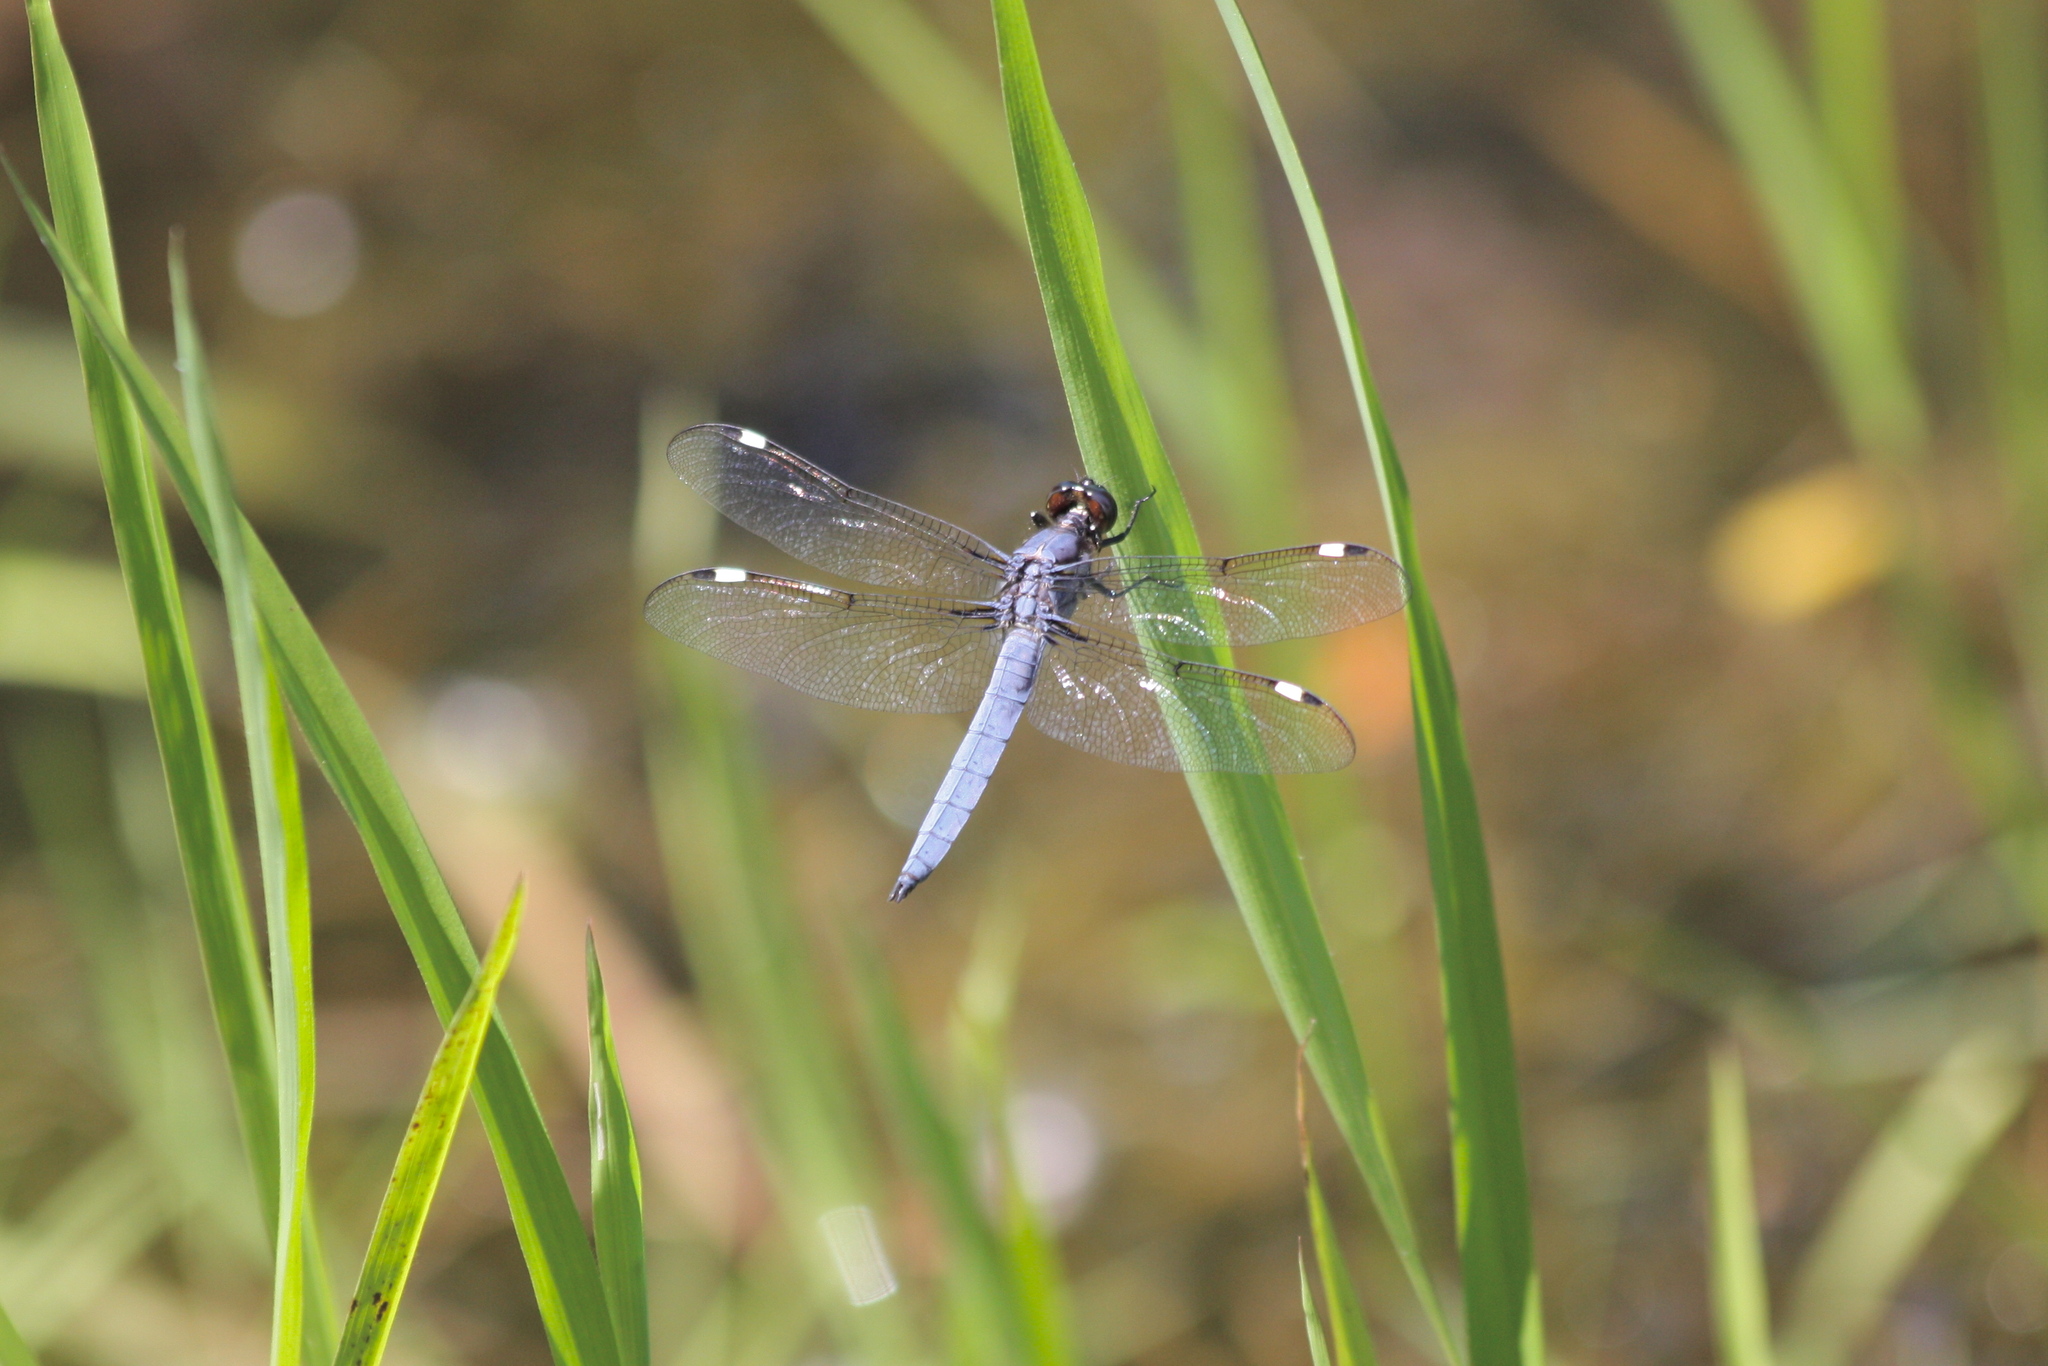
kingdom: Animalia
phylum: Arthropoda
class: Insecta
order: Odonata
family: Libellulidae
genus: Libellula
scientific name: Libellula cyanea
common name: Spangled skimmer
